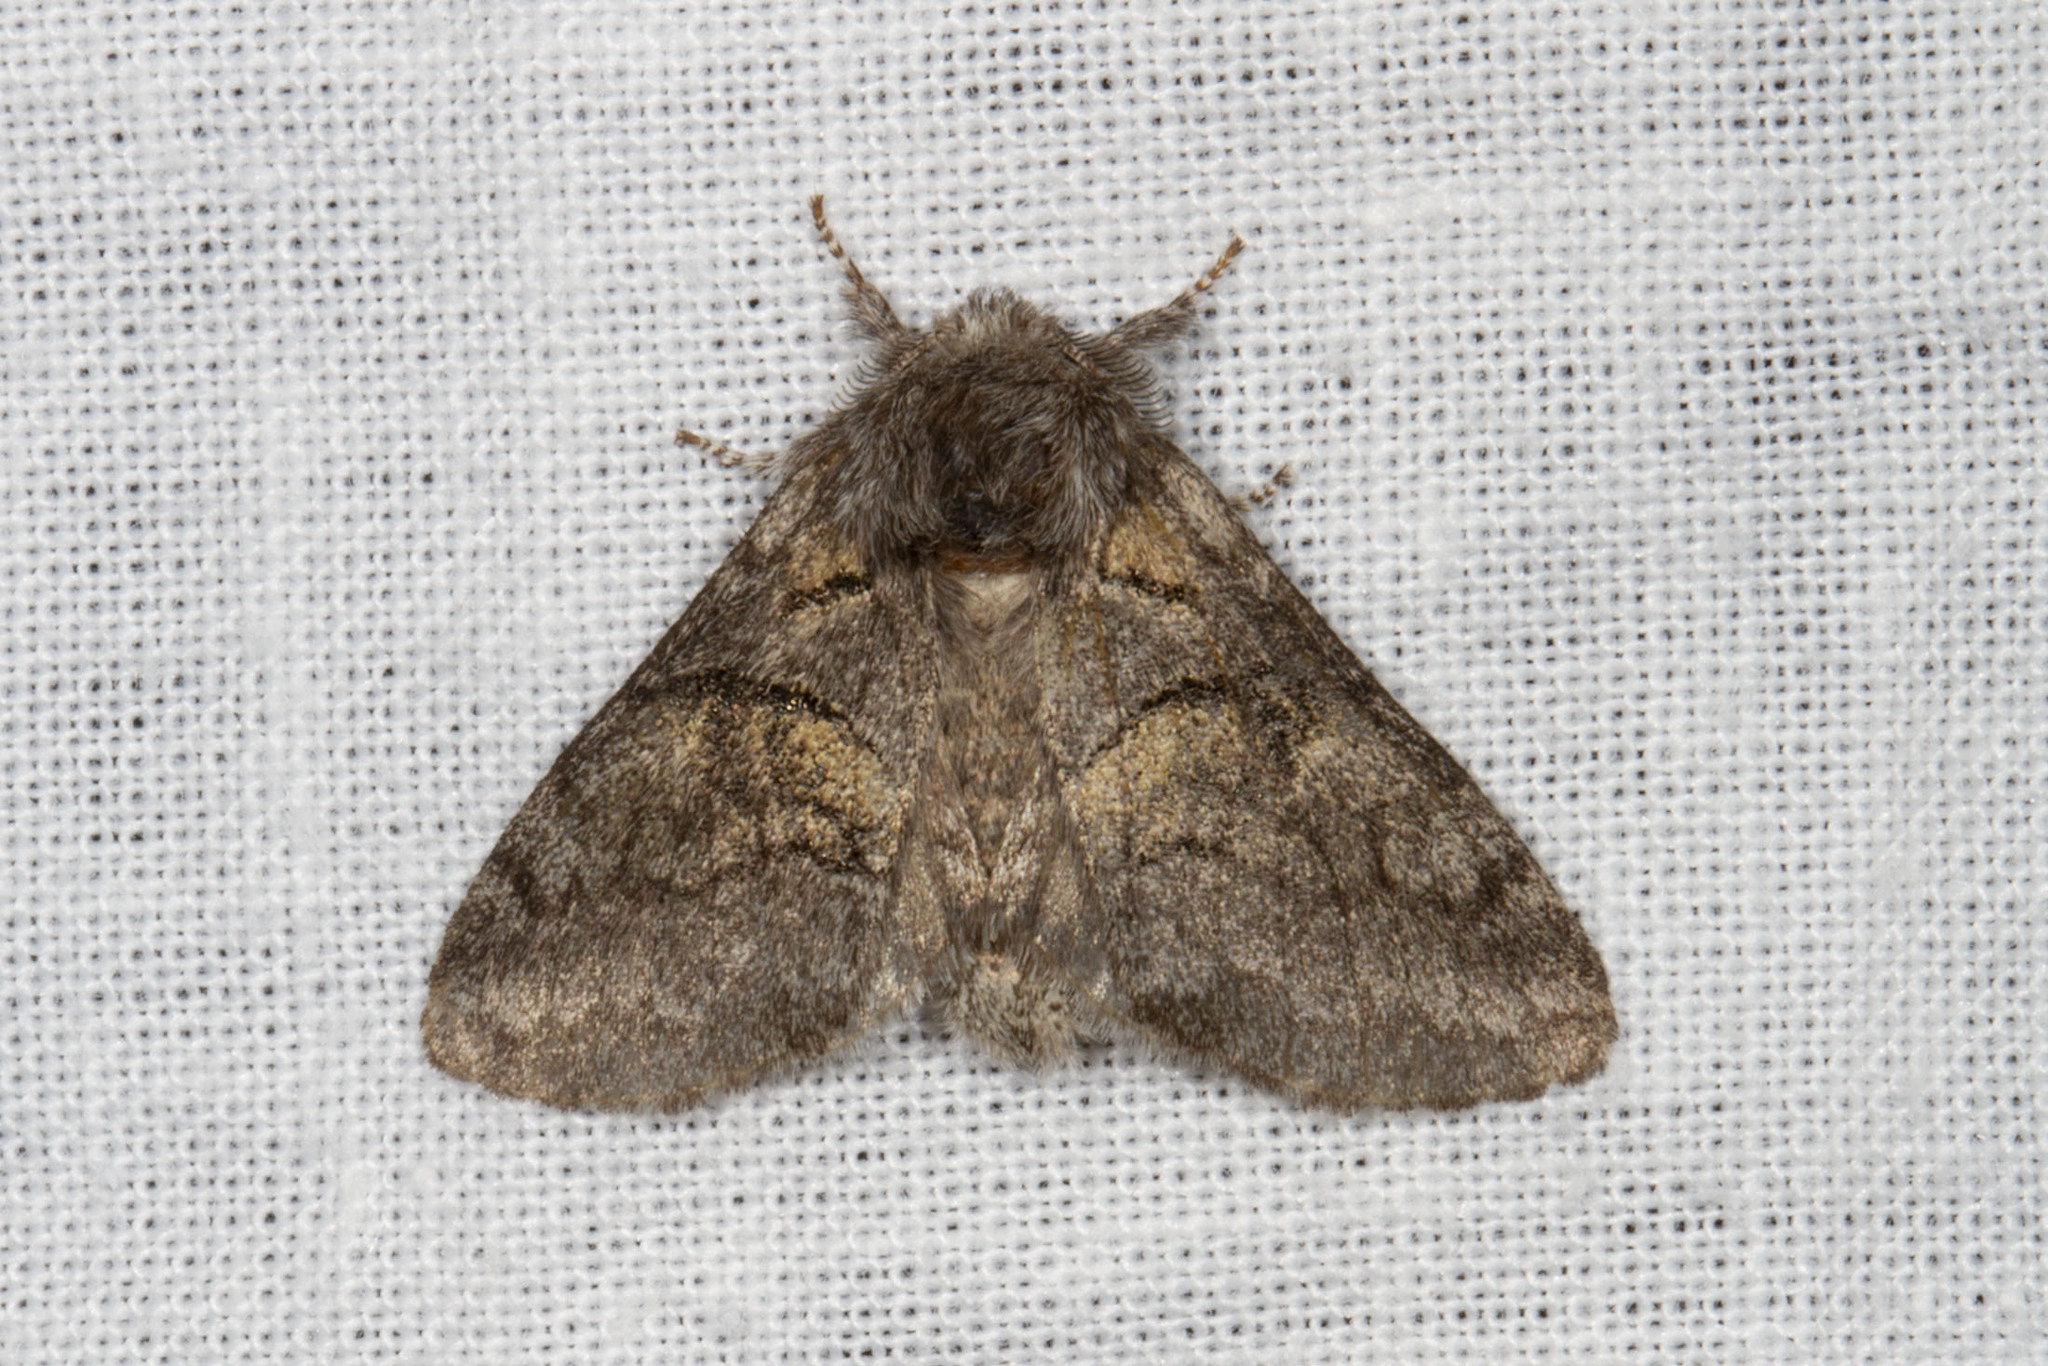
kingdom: Animalia
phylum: Arthropoda
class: Insecta
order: Lepidoptera
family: Notodontidae
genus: Gluphisia
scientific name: Gluphisia septentrionis
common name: Common gluphisia
